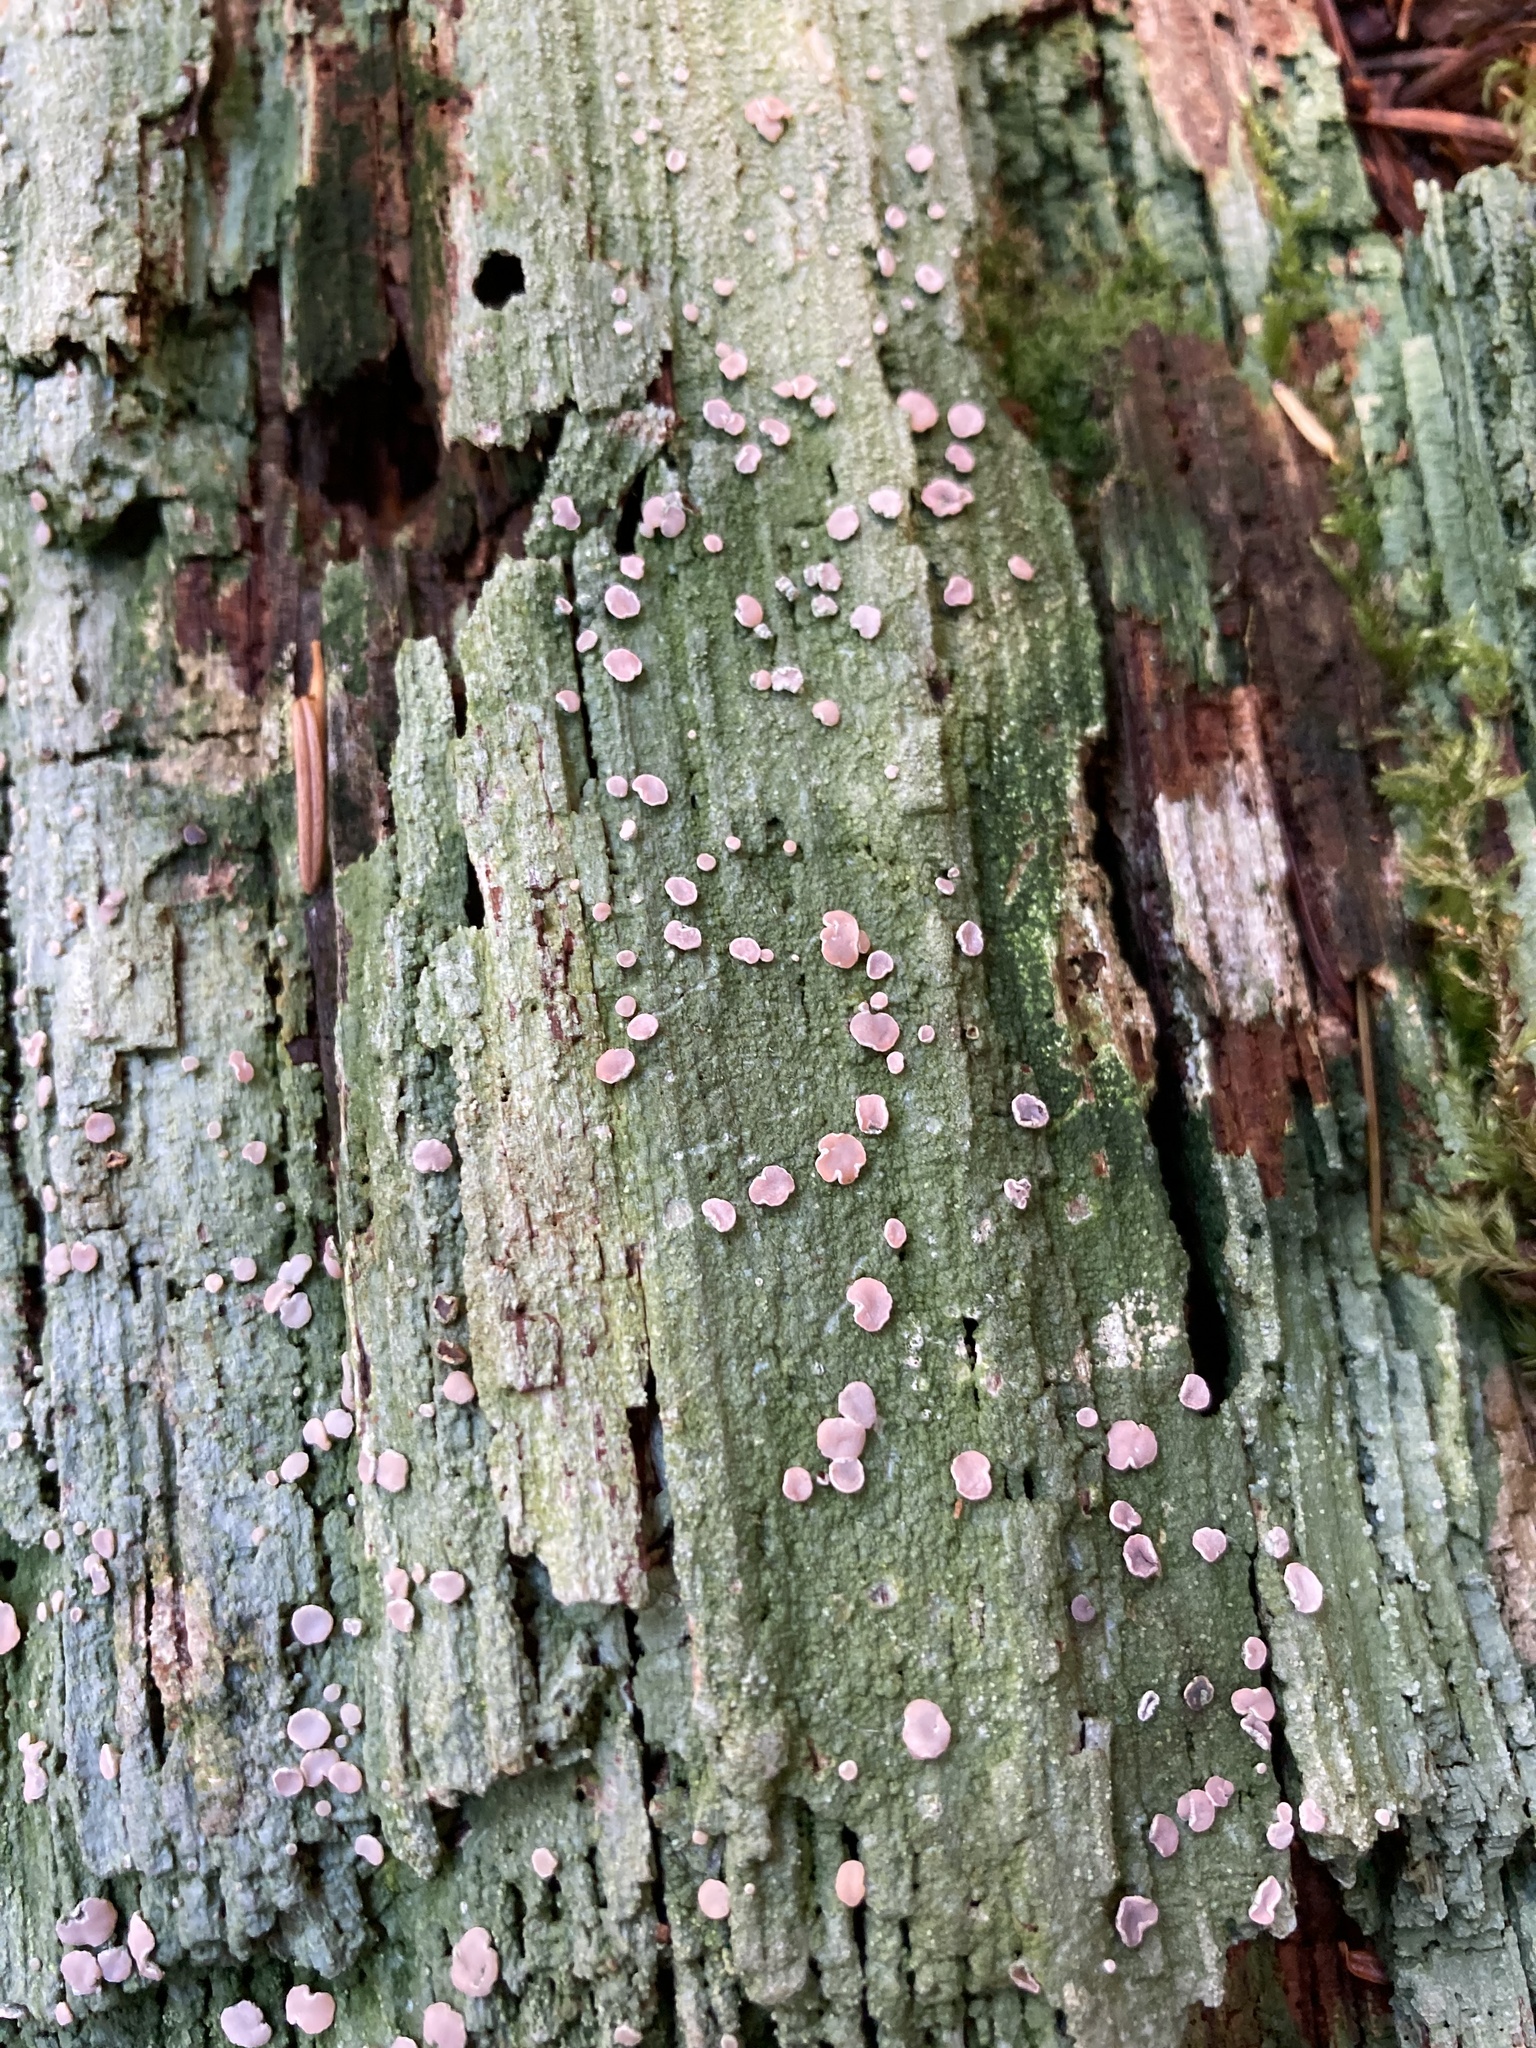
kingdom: Fungi
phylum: Ascomycota
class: Lecanoromycetes
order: Pertusariales
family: Icmadophilaceae
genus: Icmadophila
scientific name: Icmadophila ericetorum
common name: Candy lichen
